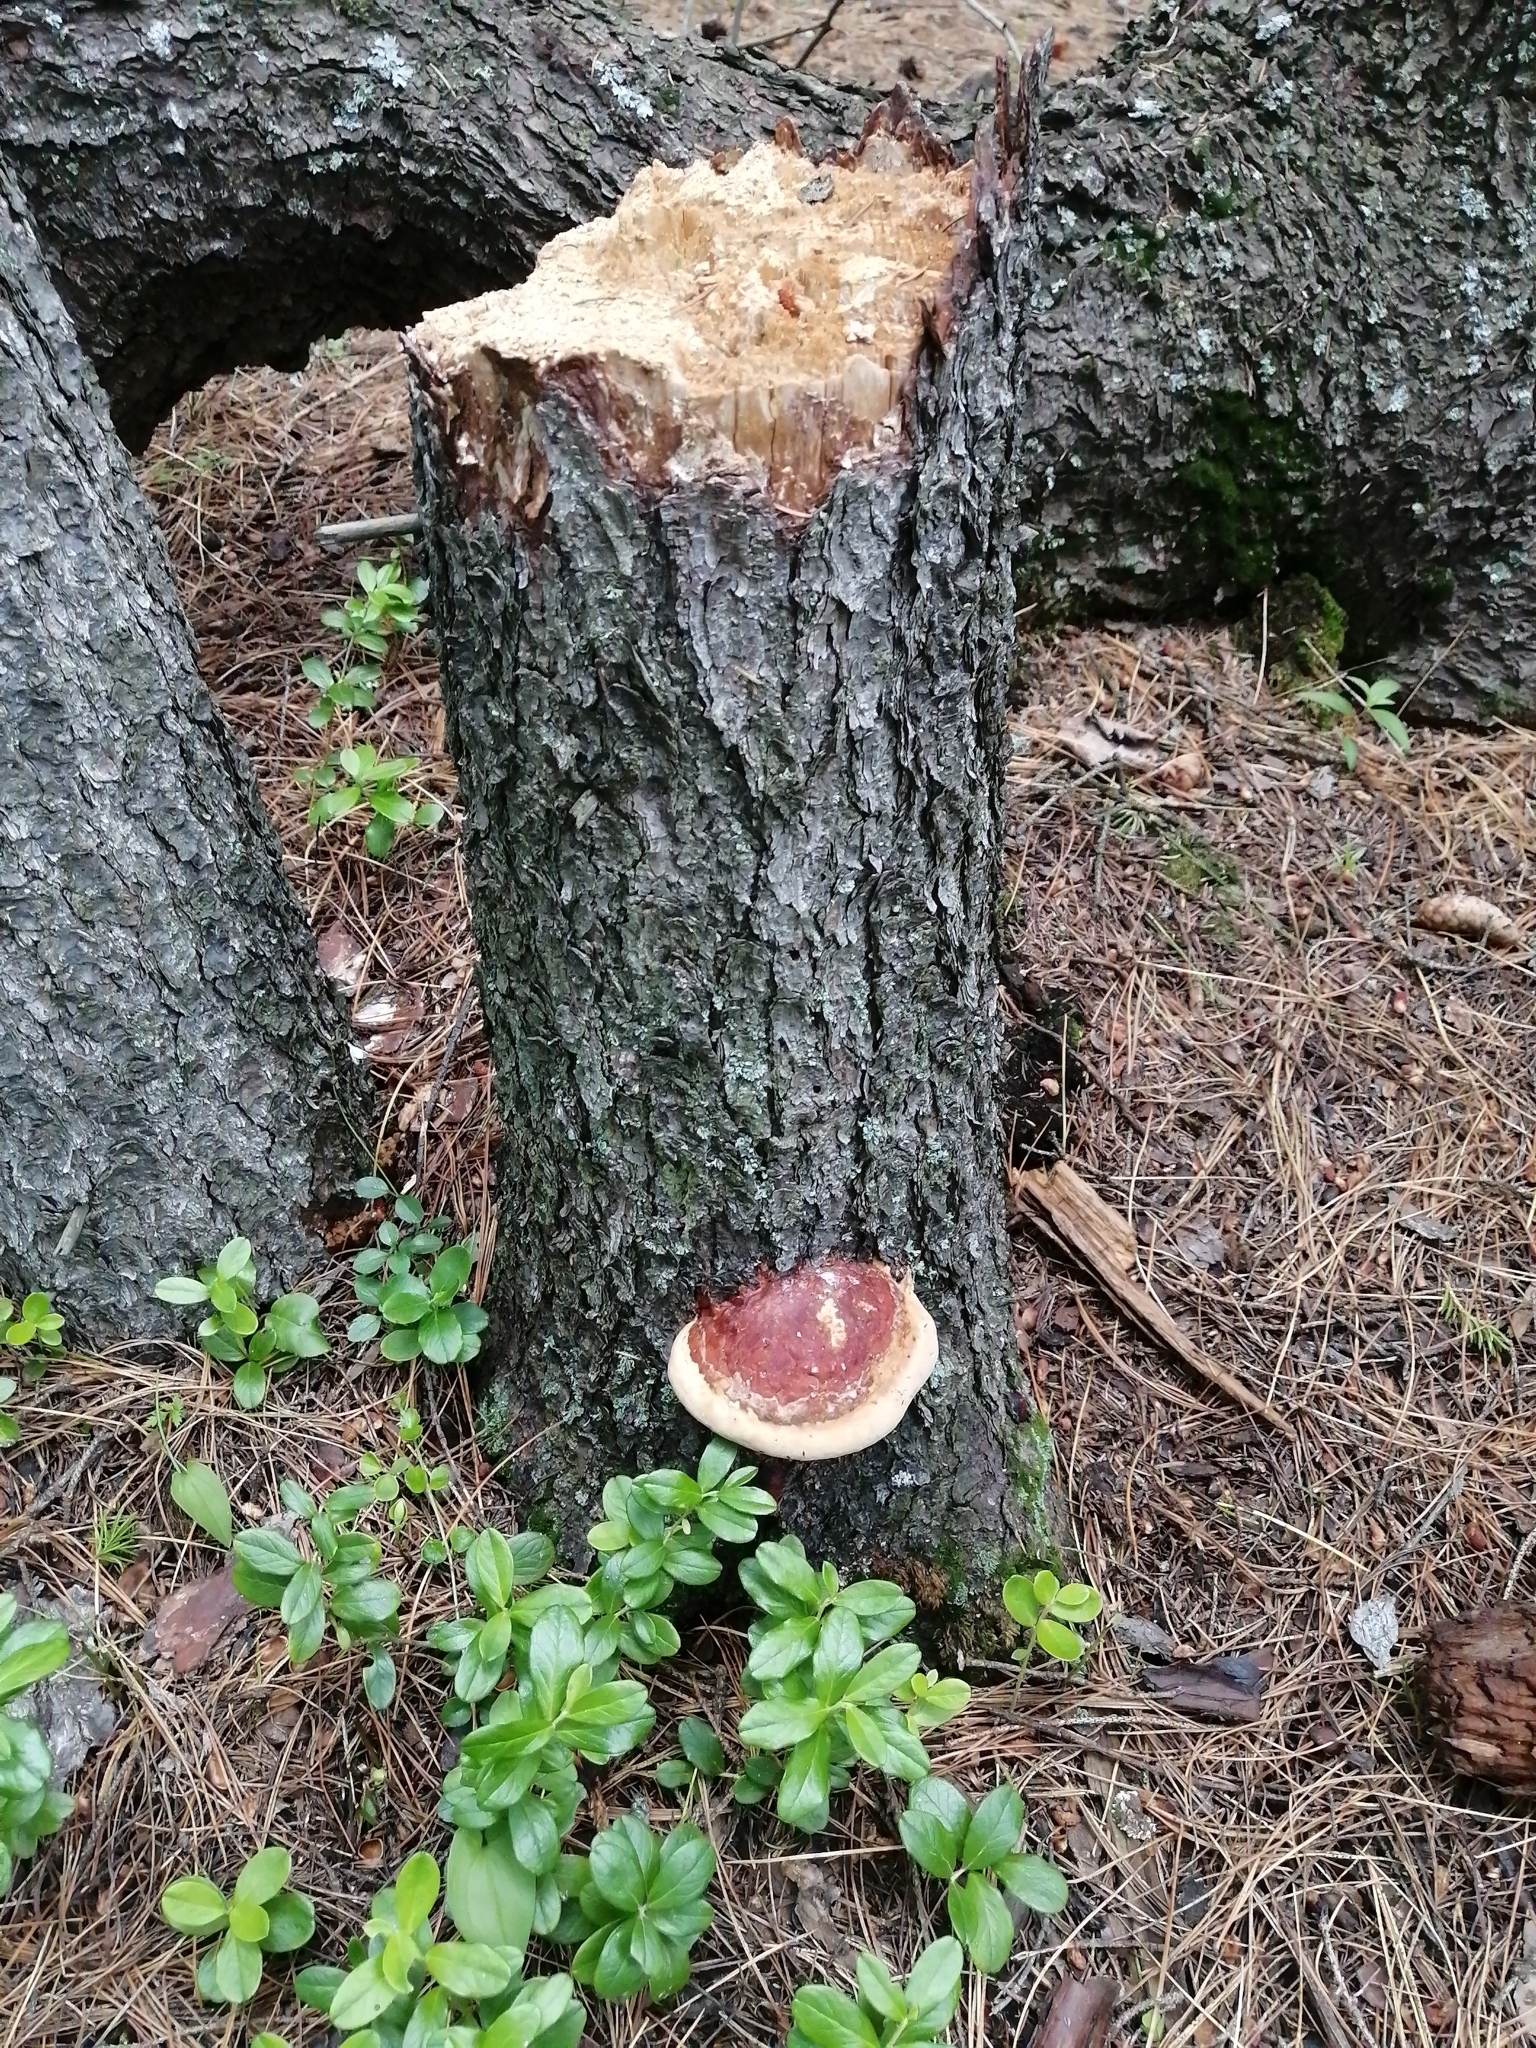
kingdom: Fungi
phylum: Basidiomycota
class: Agaricomycetes
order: Polyporales
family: Fomitopsidaceae
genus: Fomitopsis
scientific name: Fomitopsis pinicola
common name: Red-belted bracket
